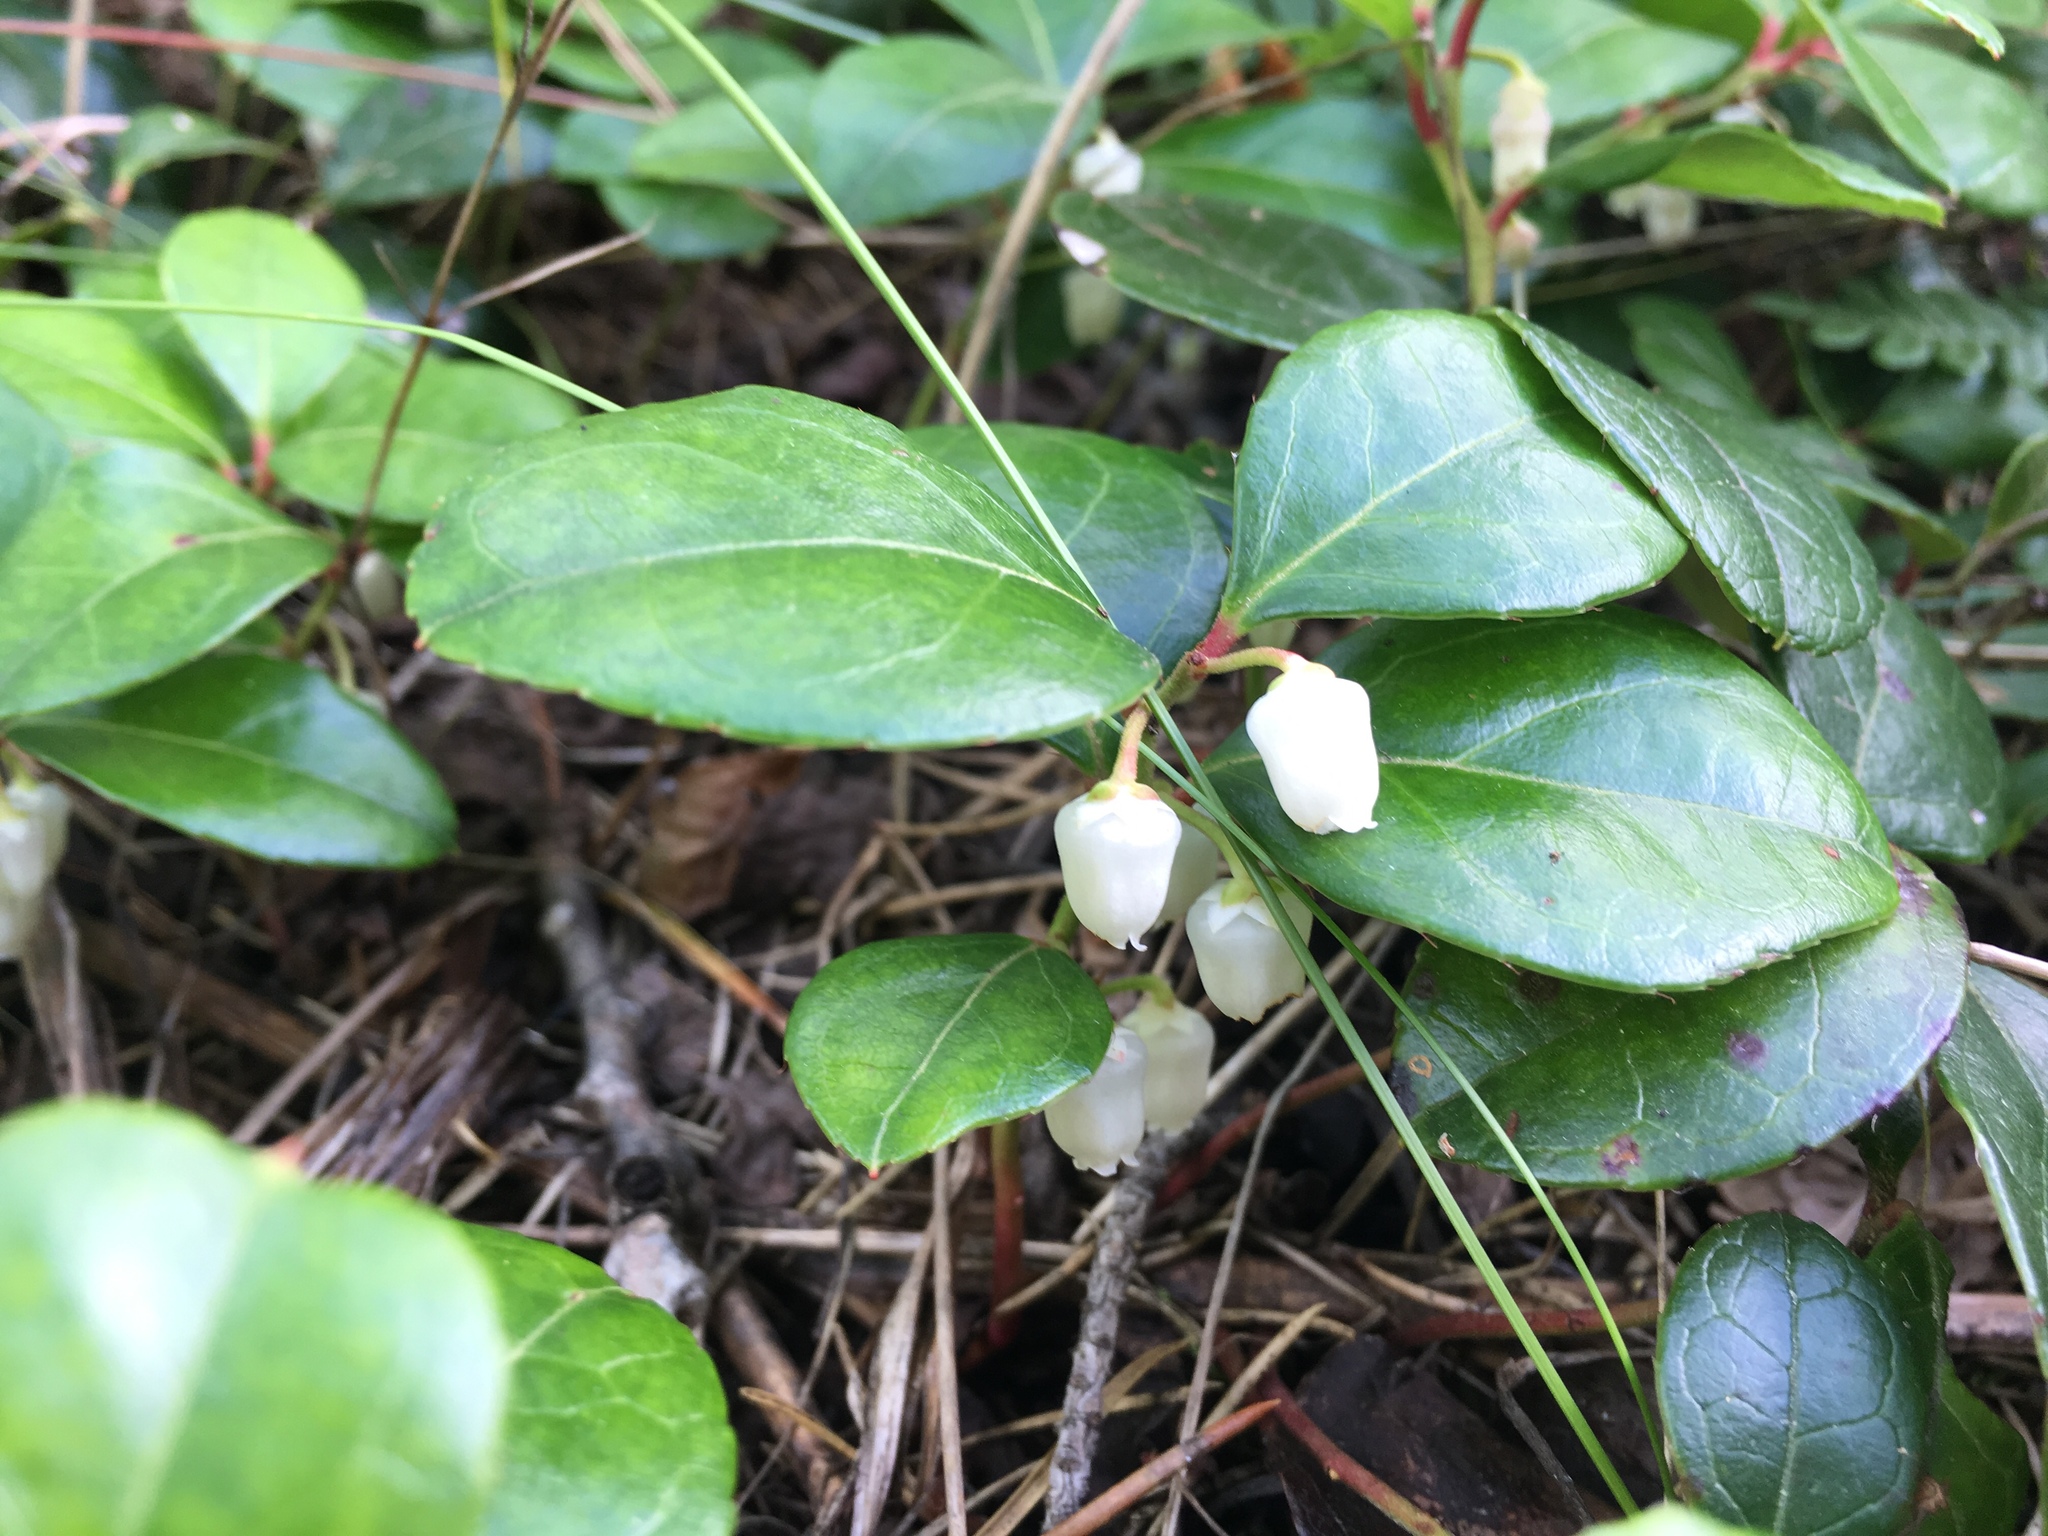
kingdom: Plantae
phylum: Tracheophyta
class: Magnoliopsida
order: Ericales
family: Ericaceae
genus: Gaultheria
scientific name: Gaultheria procumbens
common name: Checkerberry
